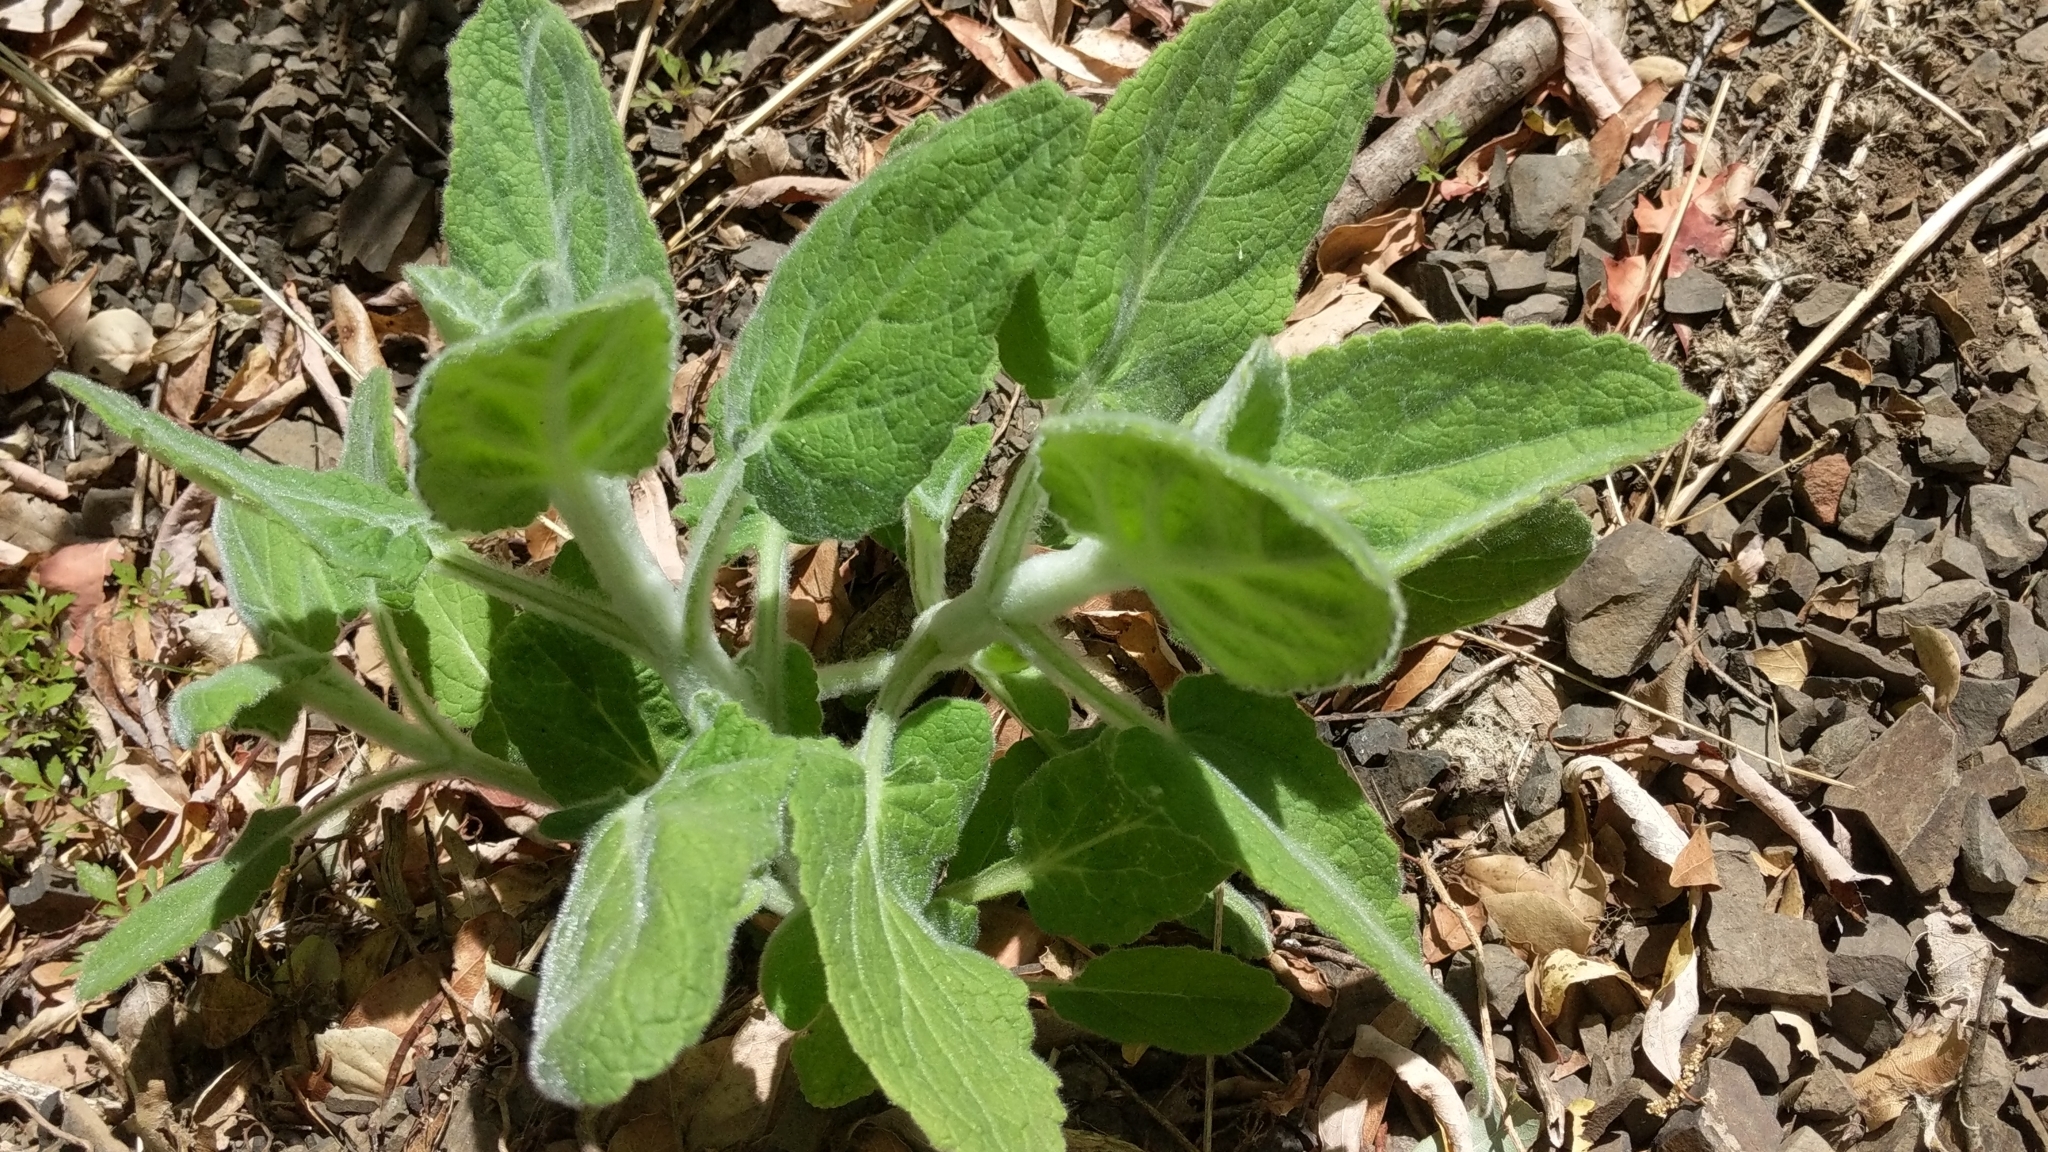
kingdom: Plantae
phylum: Tracheophyta
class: Magnoliopsida
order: Lamiales
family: Lamiaceae
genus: Stachys
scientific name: Stachys albens
